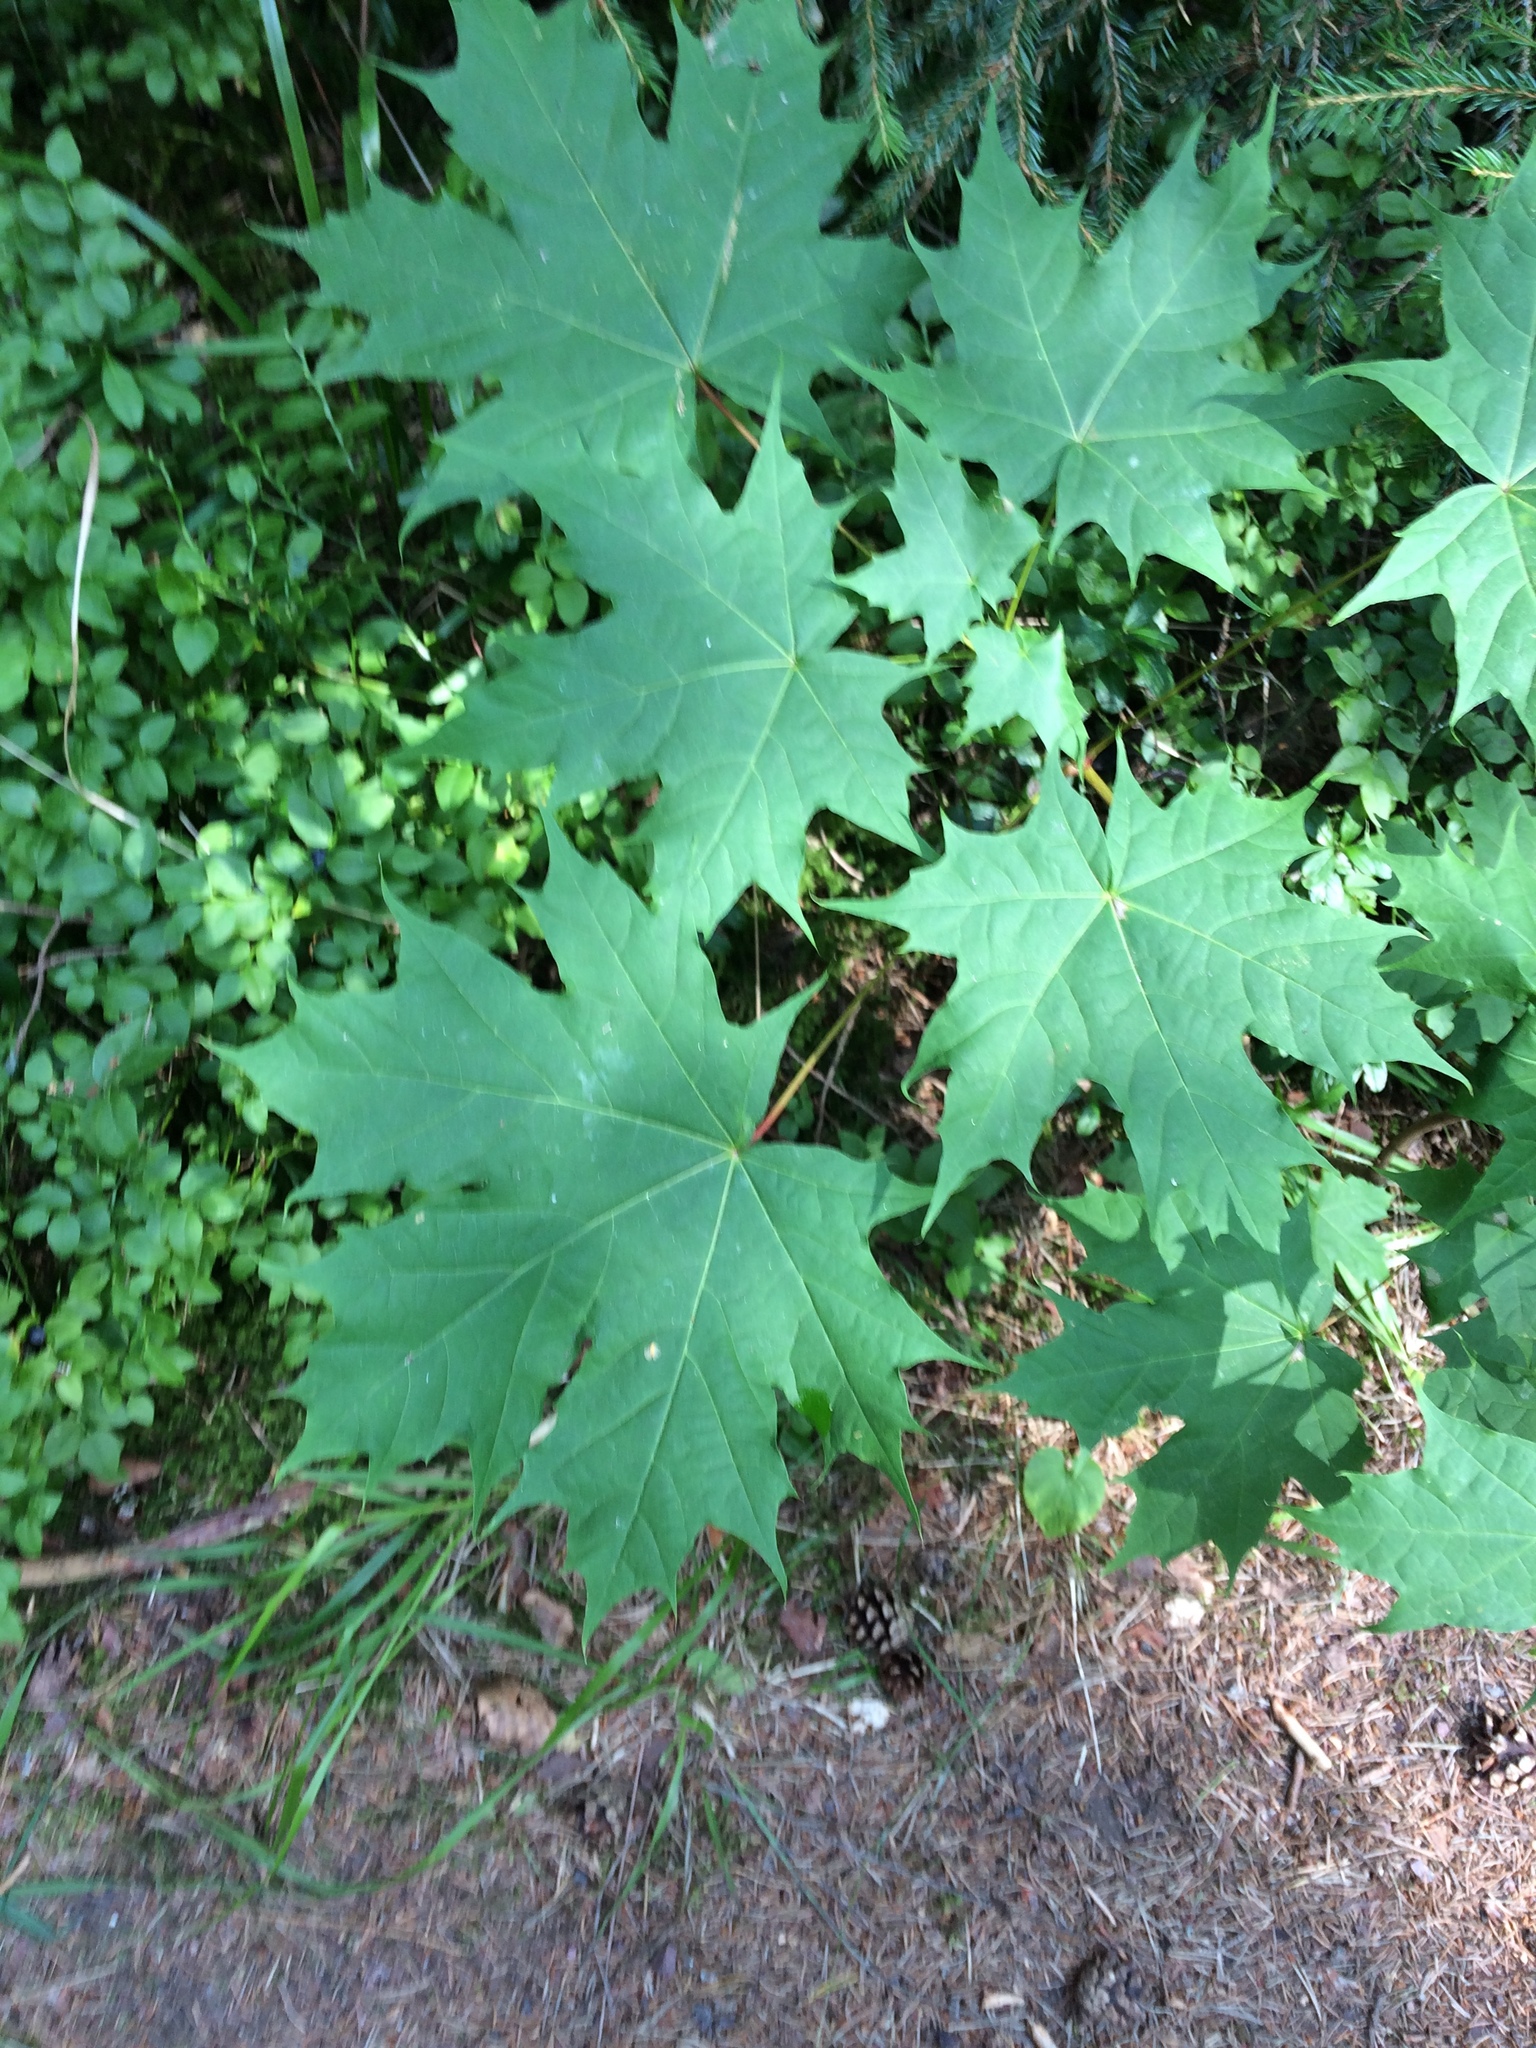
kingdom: Plantae
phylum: Tracheophyta
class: Magnoliopsida
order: Sapindales
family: Sapindaceae
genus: Acer
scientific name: Acer platanoides
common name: Norway maple
